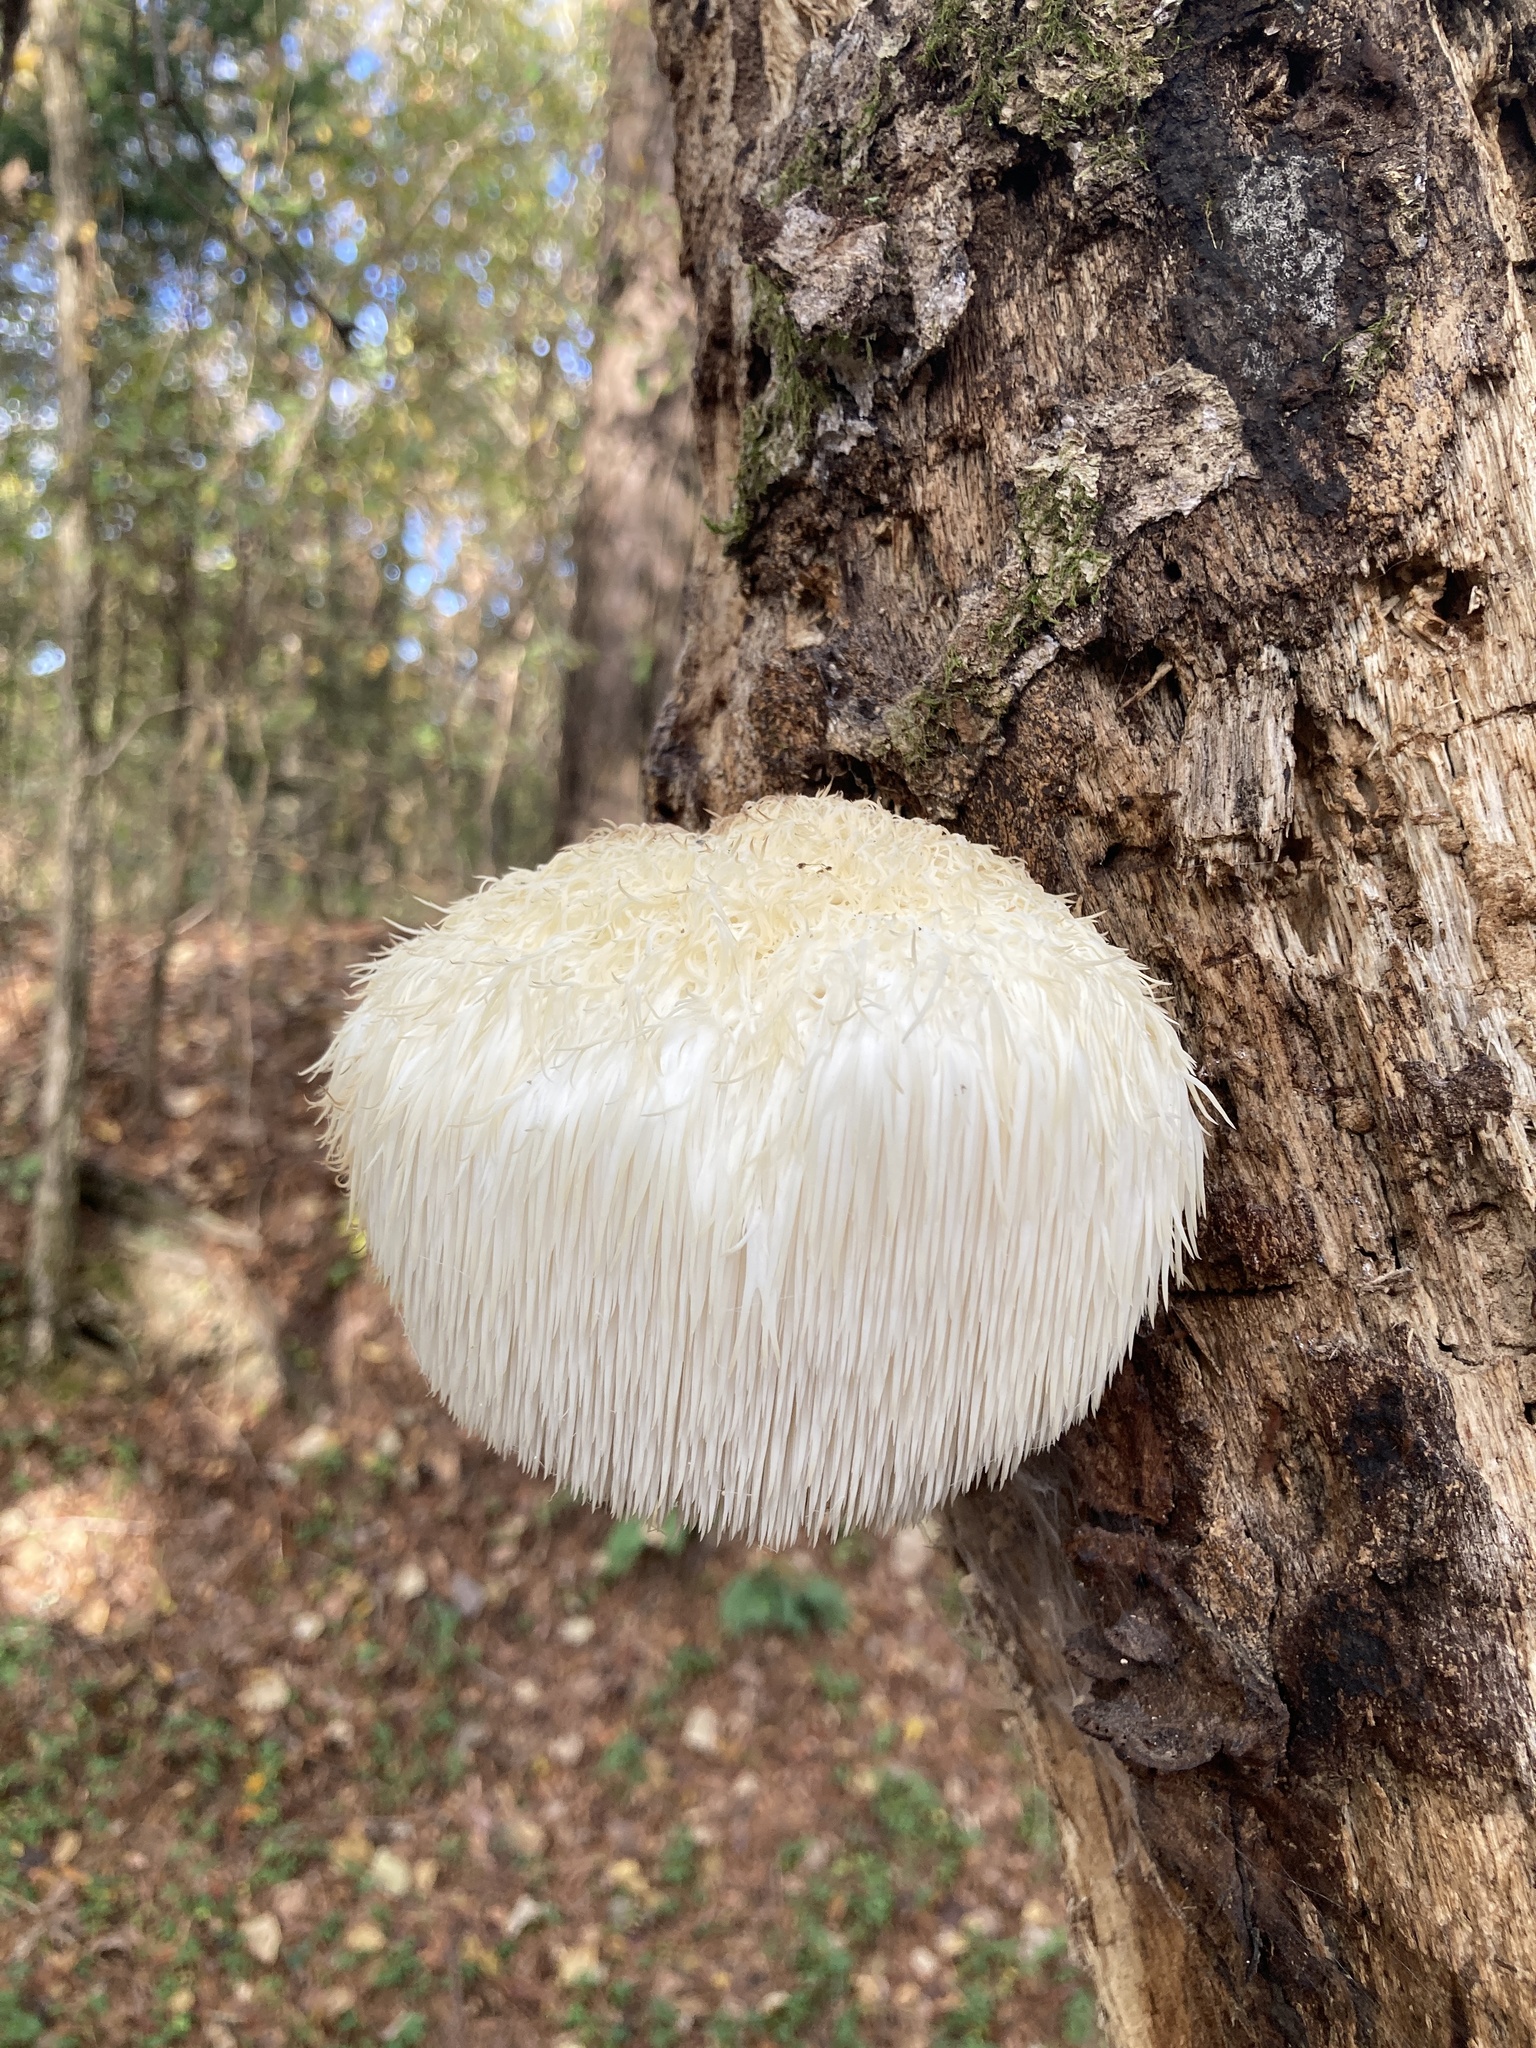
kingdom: Fungi
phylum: Basidiomycota
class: Agaricomycetes
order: Russulales
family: Hericiaceae
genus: Hericium
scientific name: Hericium erinaceus
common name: Bearded tooth
